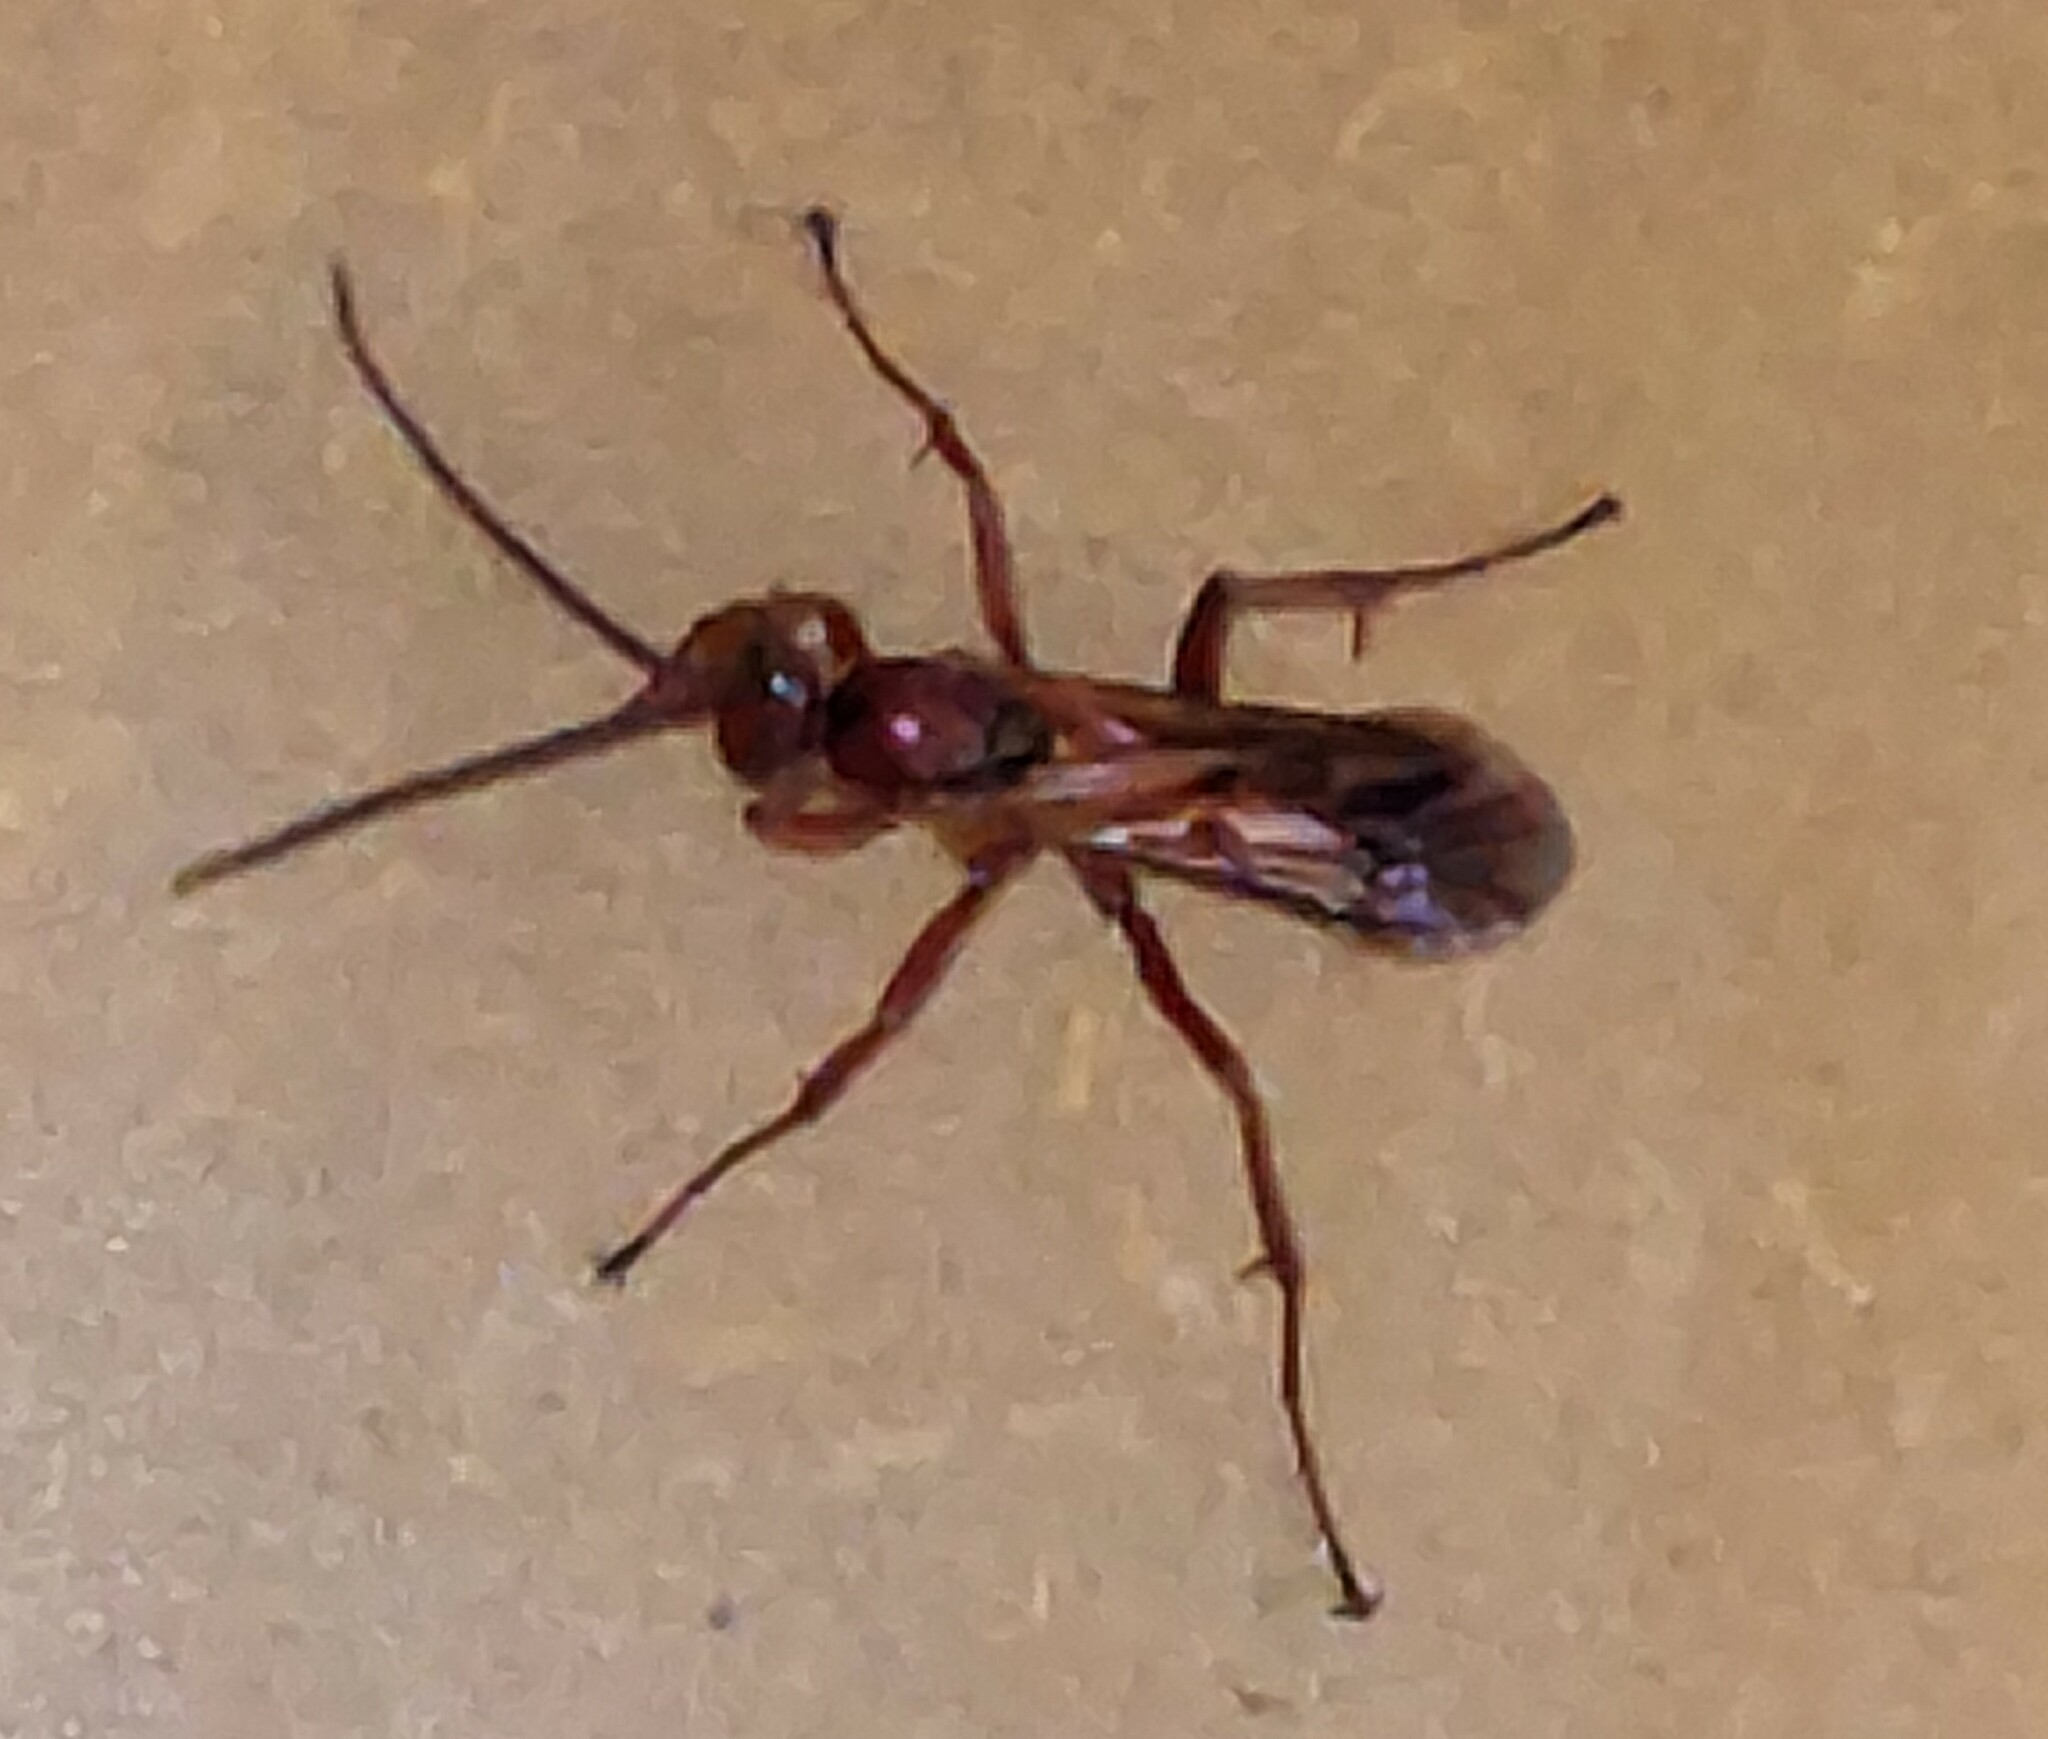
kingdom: Animalia
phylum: Arthropoda
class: Insecta
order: Hymenoptera
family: Pompilidae
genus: Sphictostethus
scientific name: Sphictostethus nitidus
